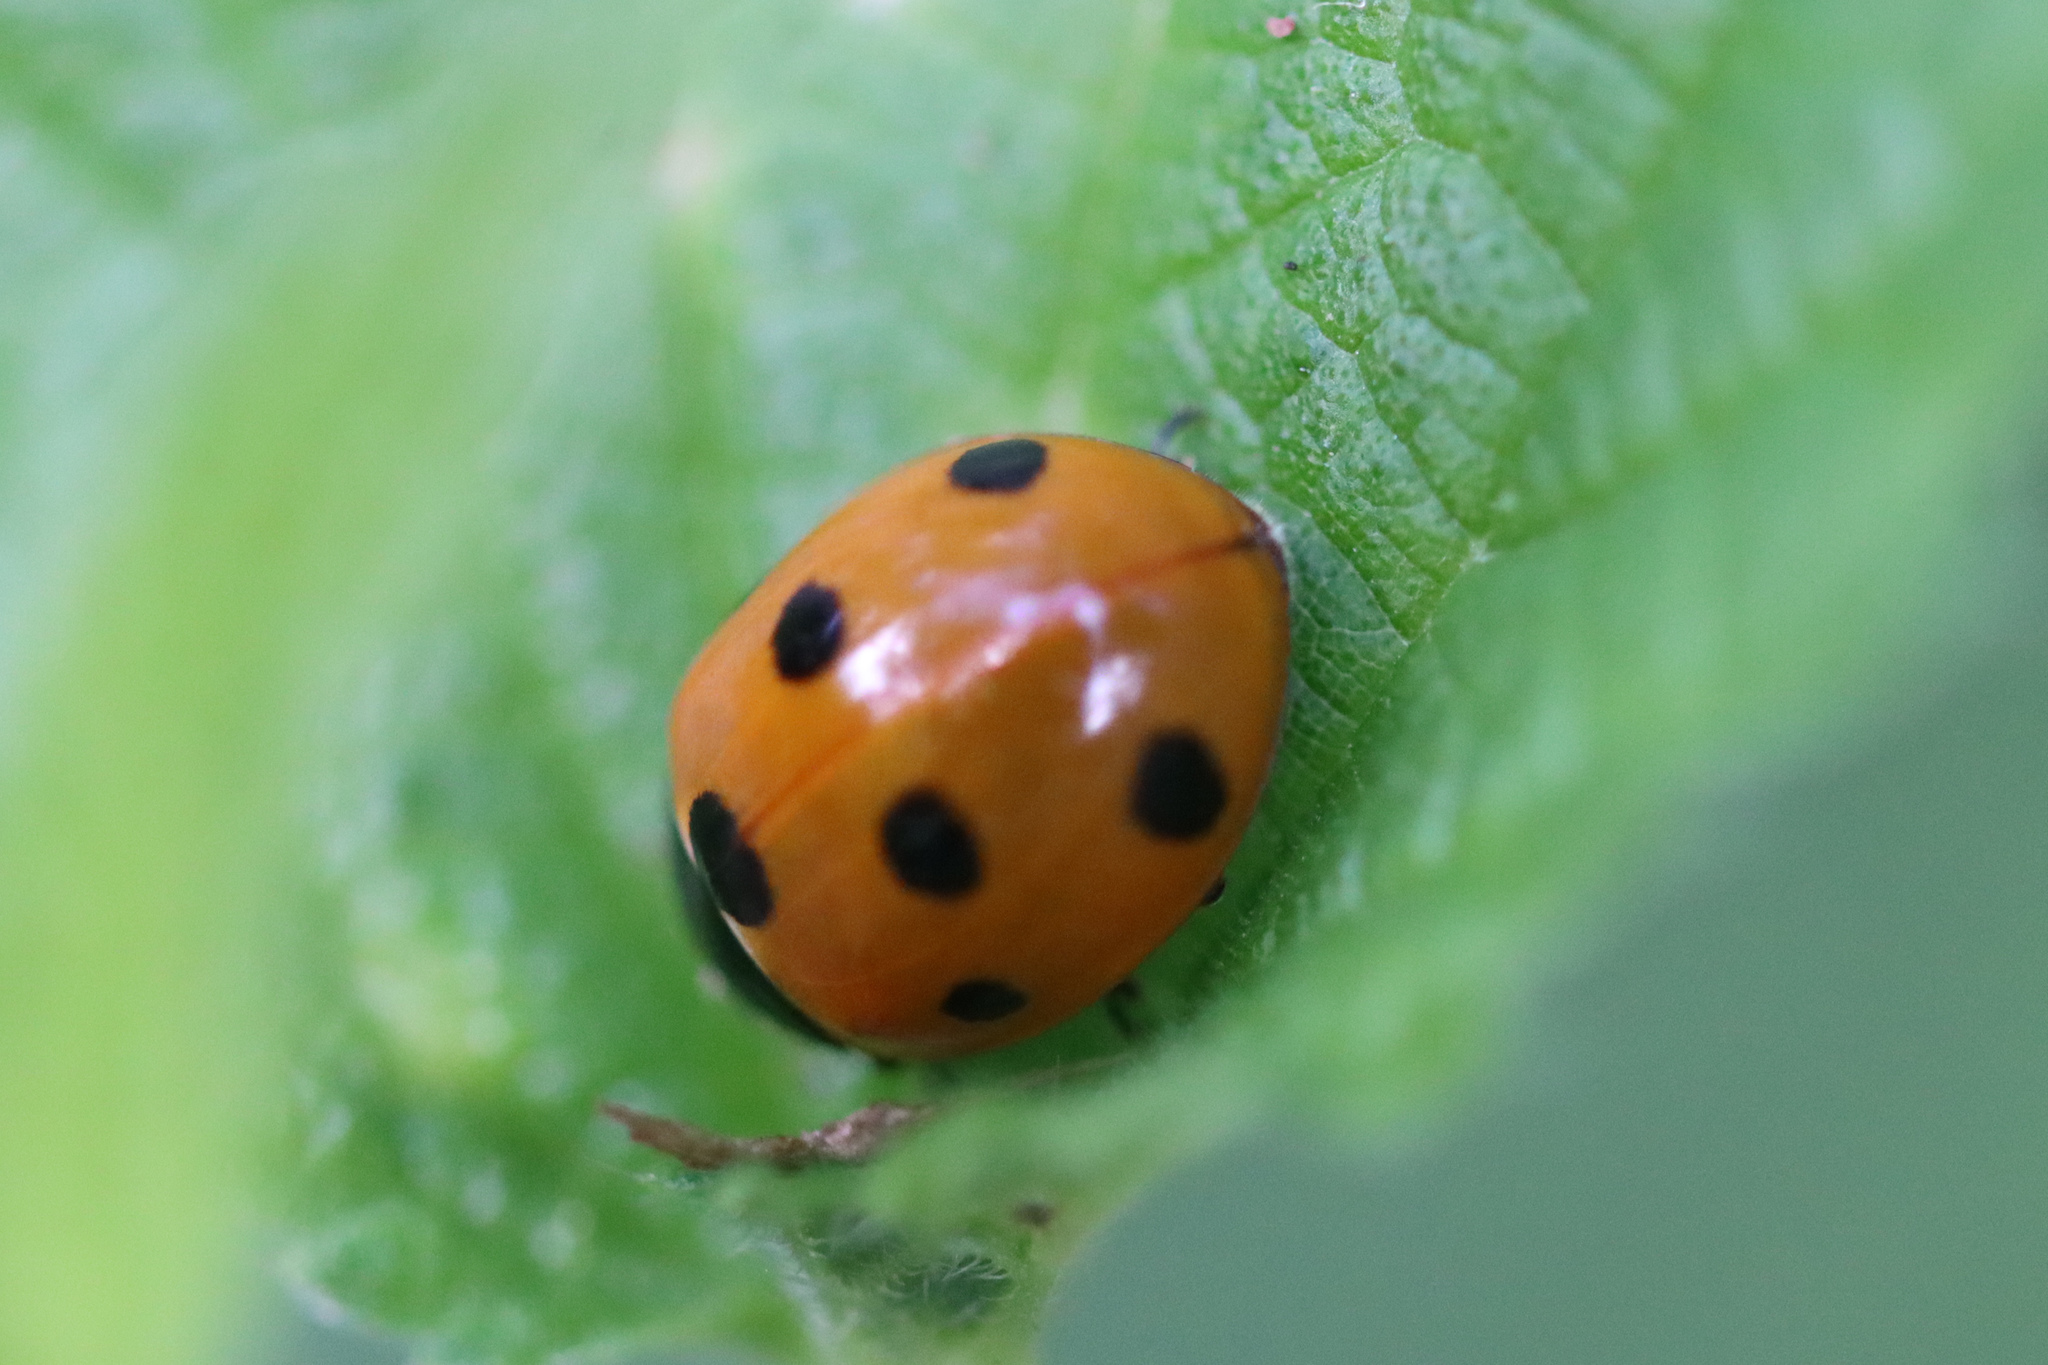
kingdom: Animalia
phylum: Arthropoda
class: Insecta
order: Coleoptera
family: Coccinellidae
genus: Coccinella
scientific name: Coccinella septempunctata
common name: Sevenspotted lady beetle
